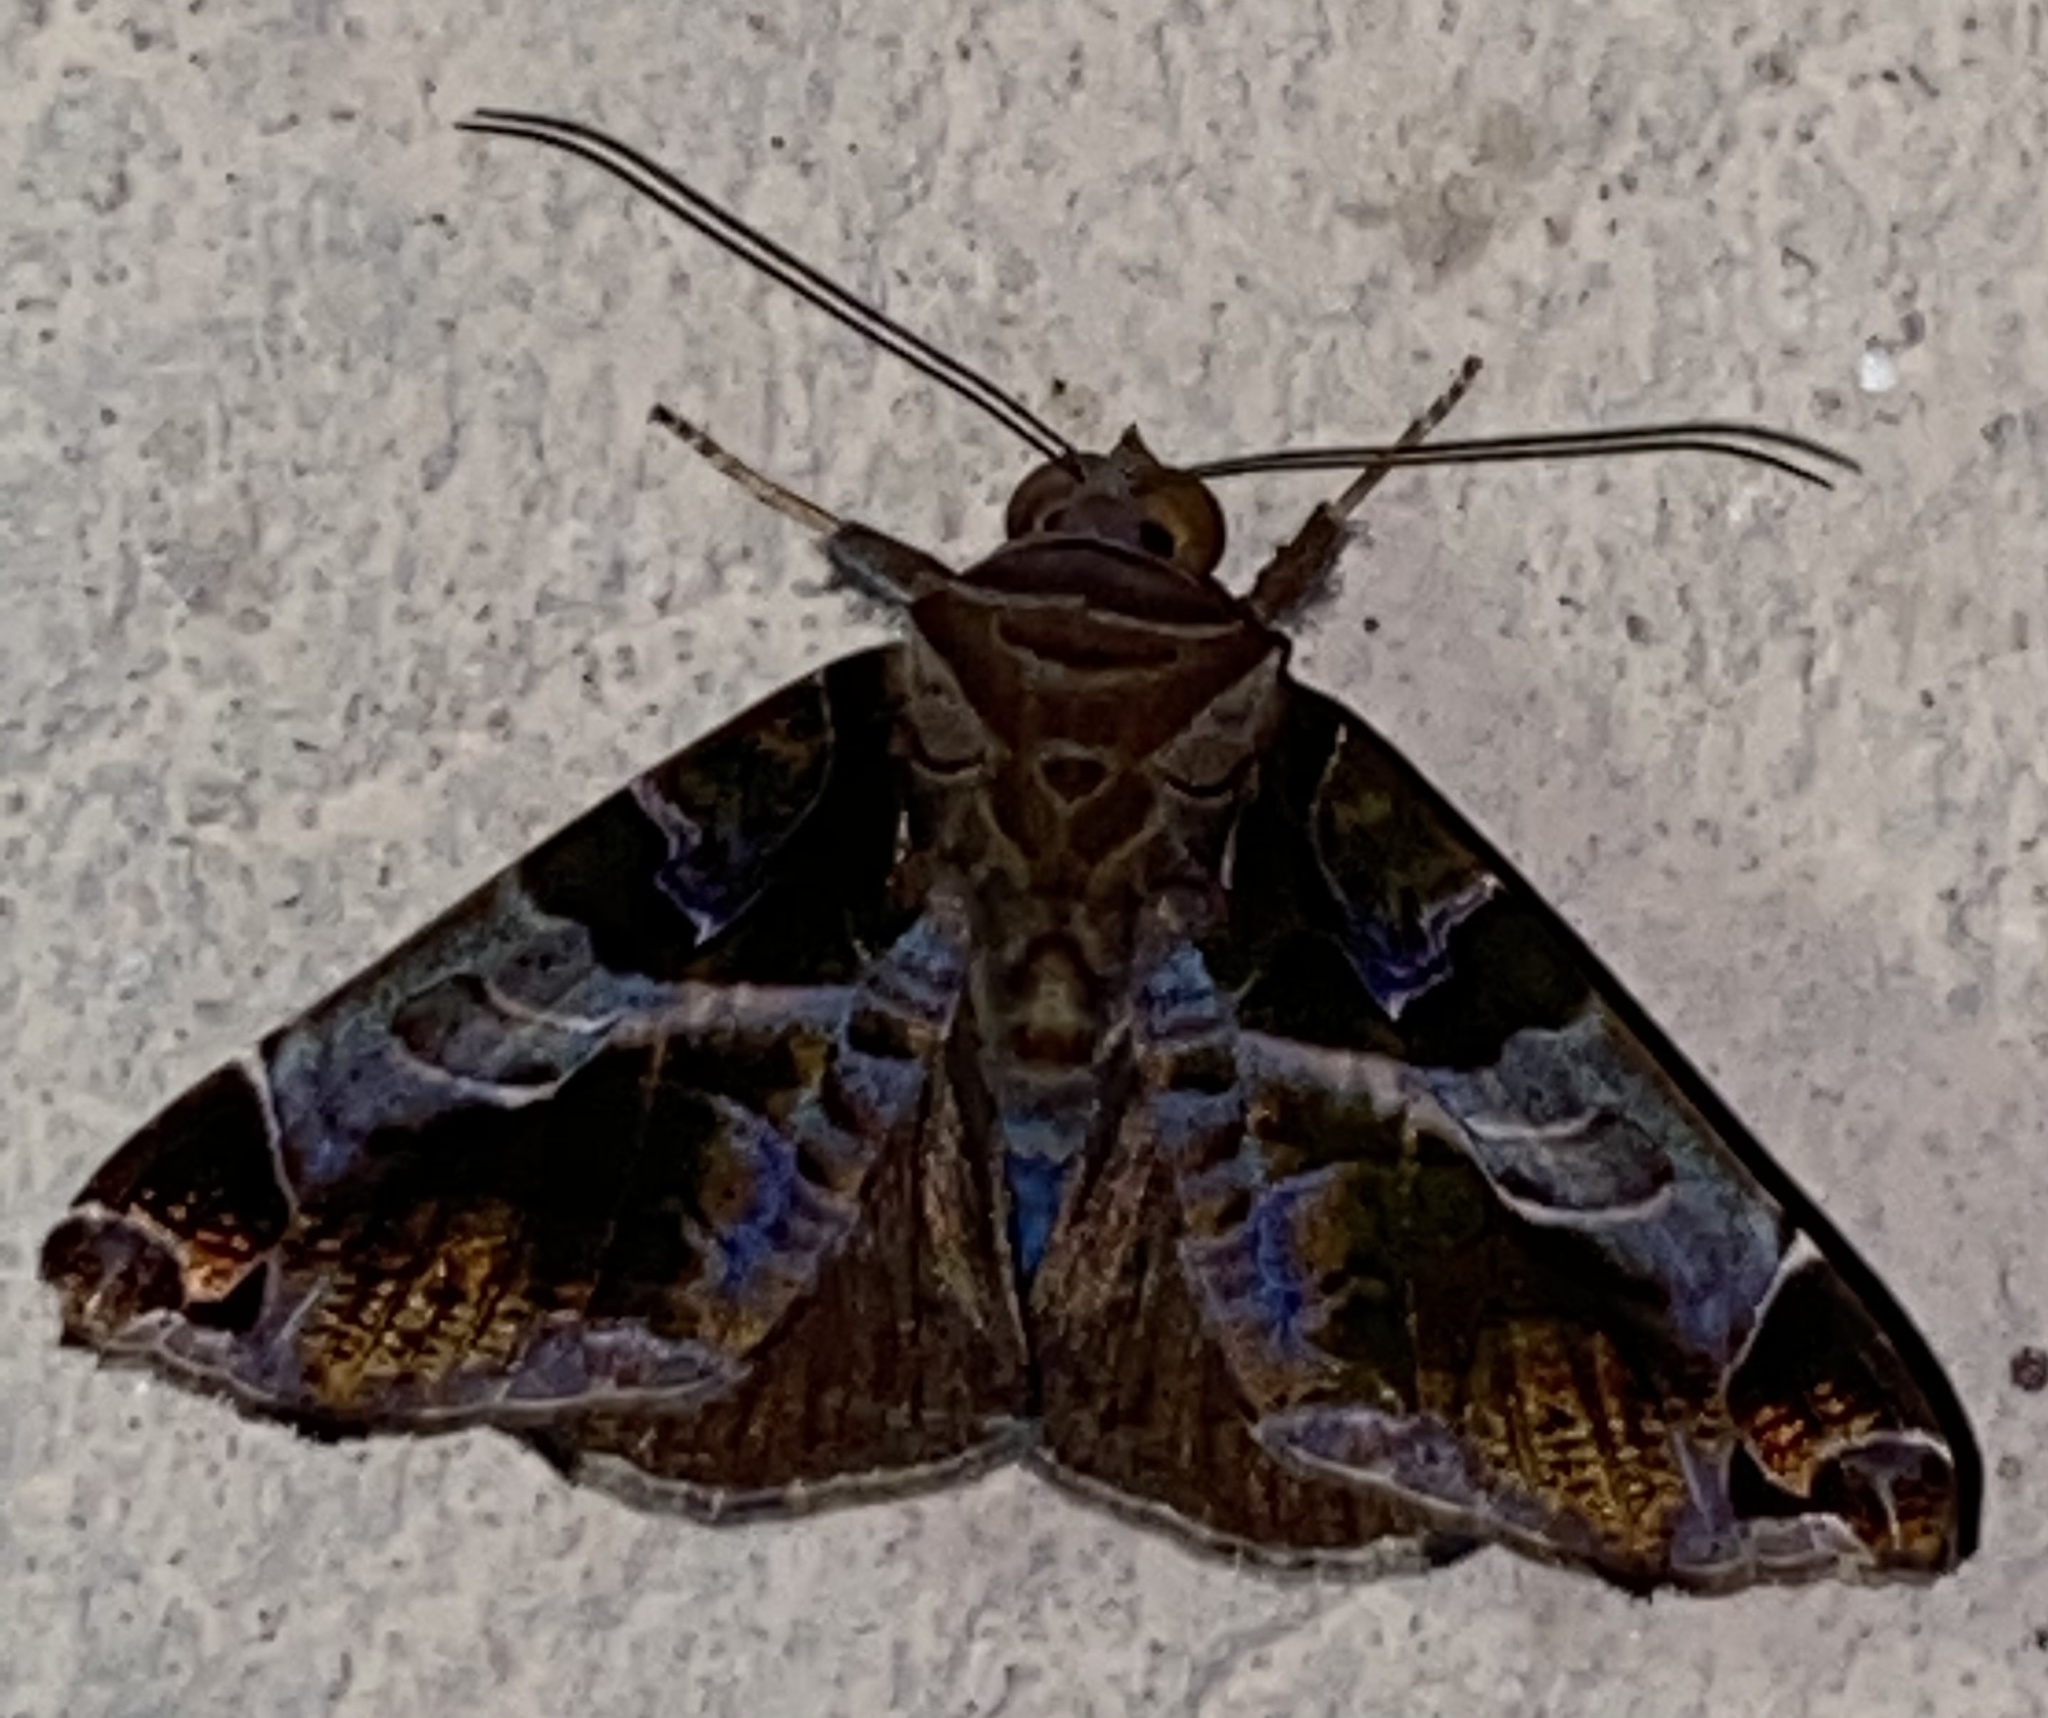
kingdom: Animalia
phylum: Arthropoda
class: Insecta
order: Lepidoptera
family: Erebidae
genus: Calyptis
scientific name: Calyptis semicuprea
